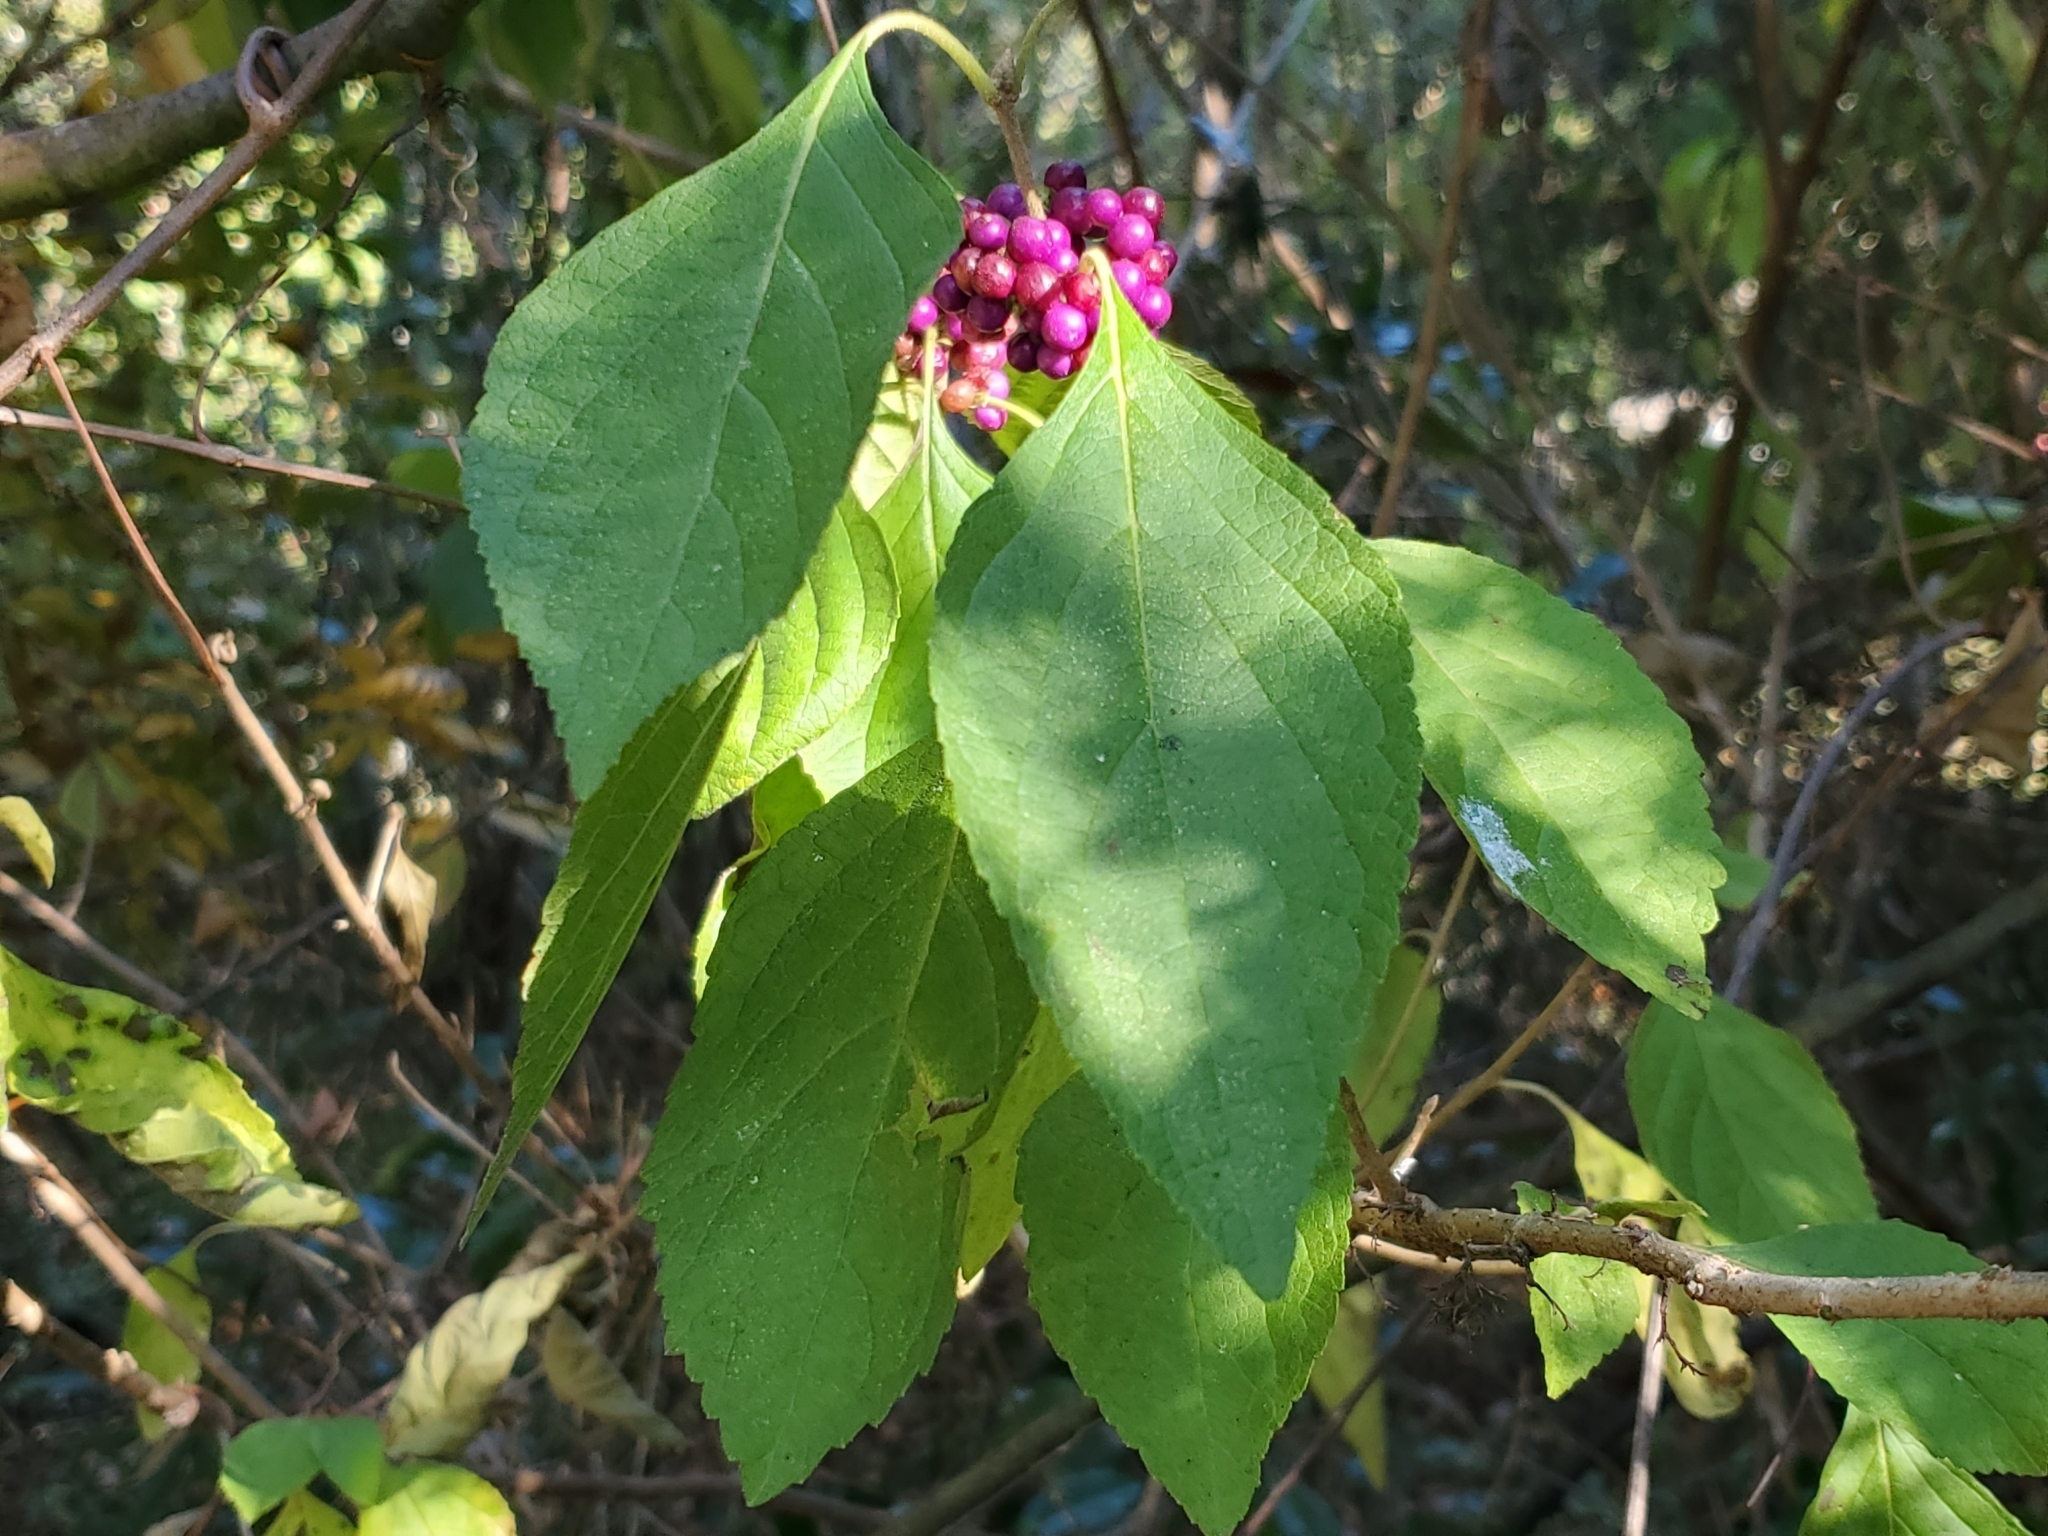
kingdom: Plantae
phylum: Tracheophyta
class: Magnoliopsida
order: Lamiales
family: Lamiaceae
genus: Callicarpa
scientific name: Callicarpa americana
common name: American beautyberry
